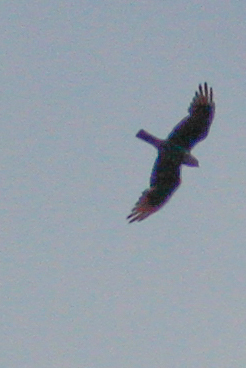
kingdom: Animalia
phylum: Chordata
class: Aves
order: Accipitriformes
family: Accipitridae
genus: Ictinia
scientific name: Ictinia plumbea
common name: Plumbeous kite
